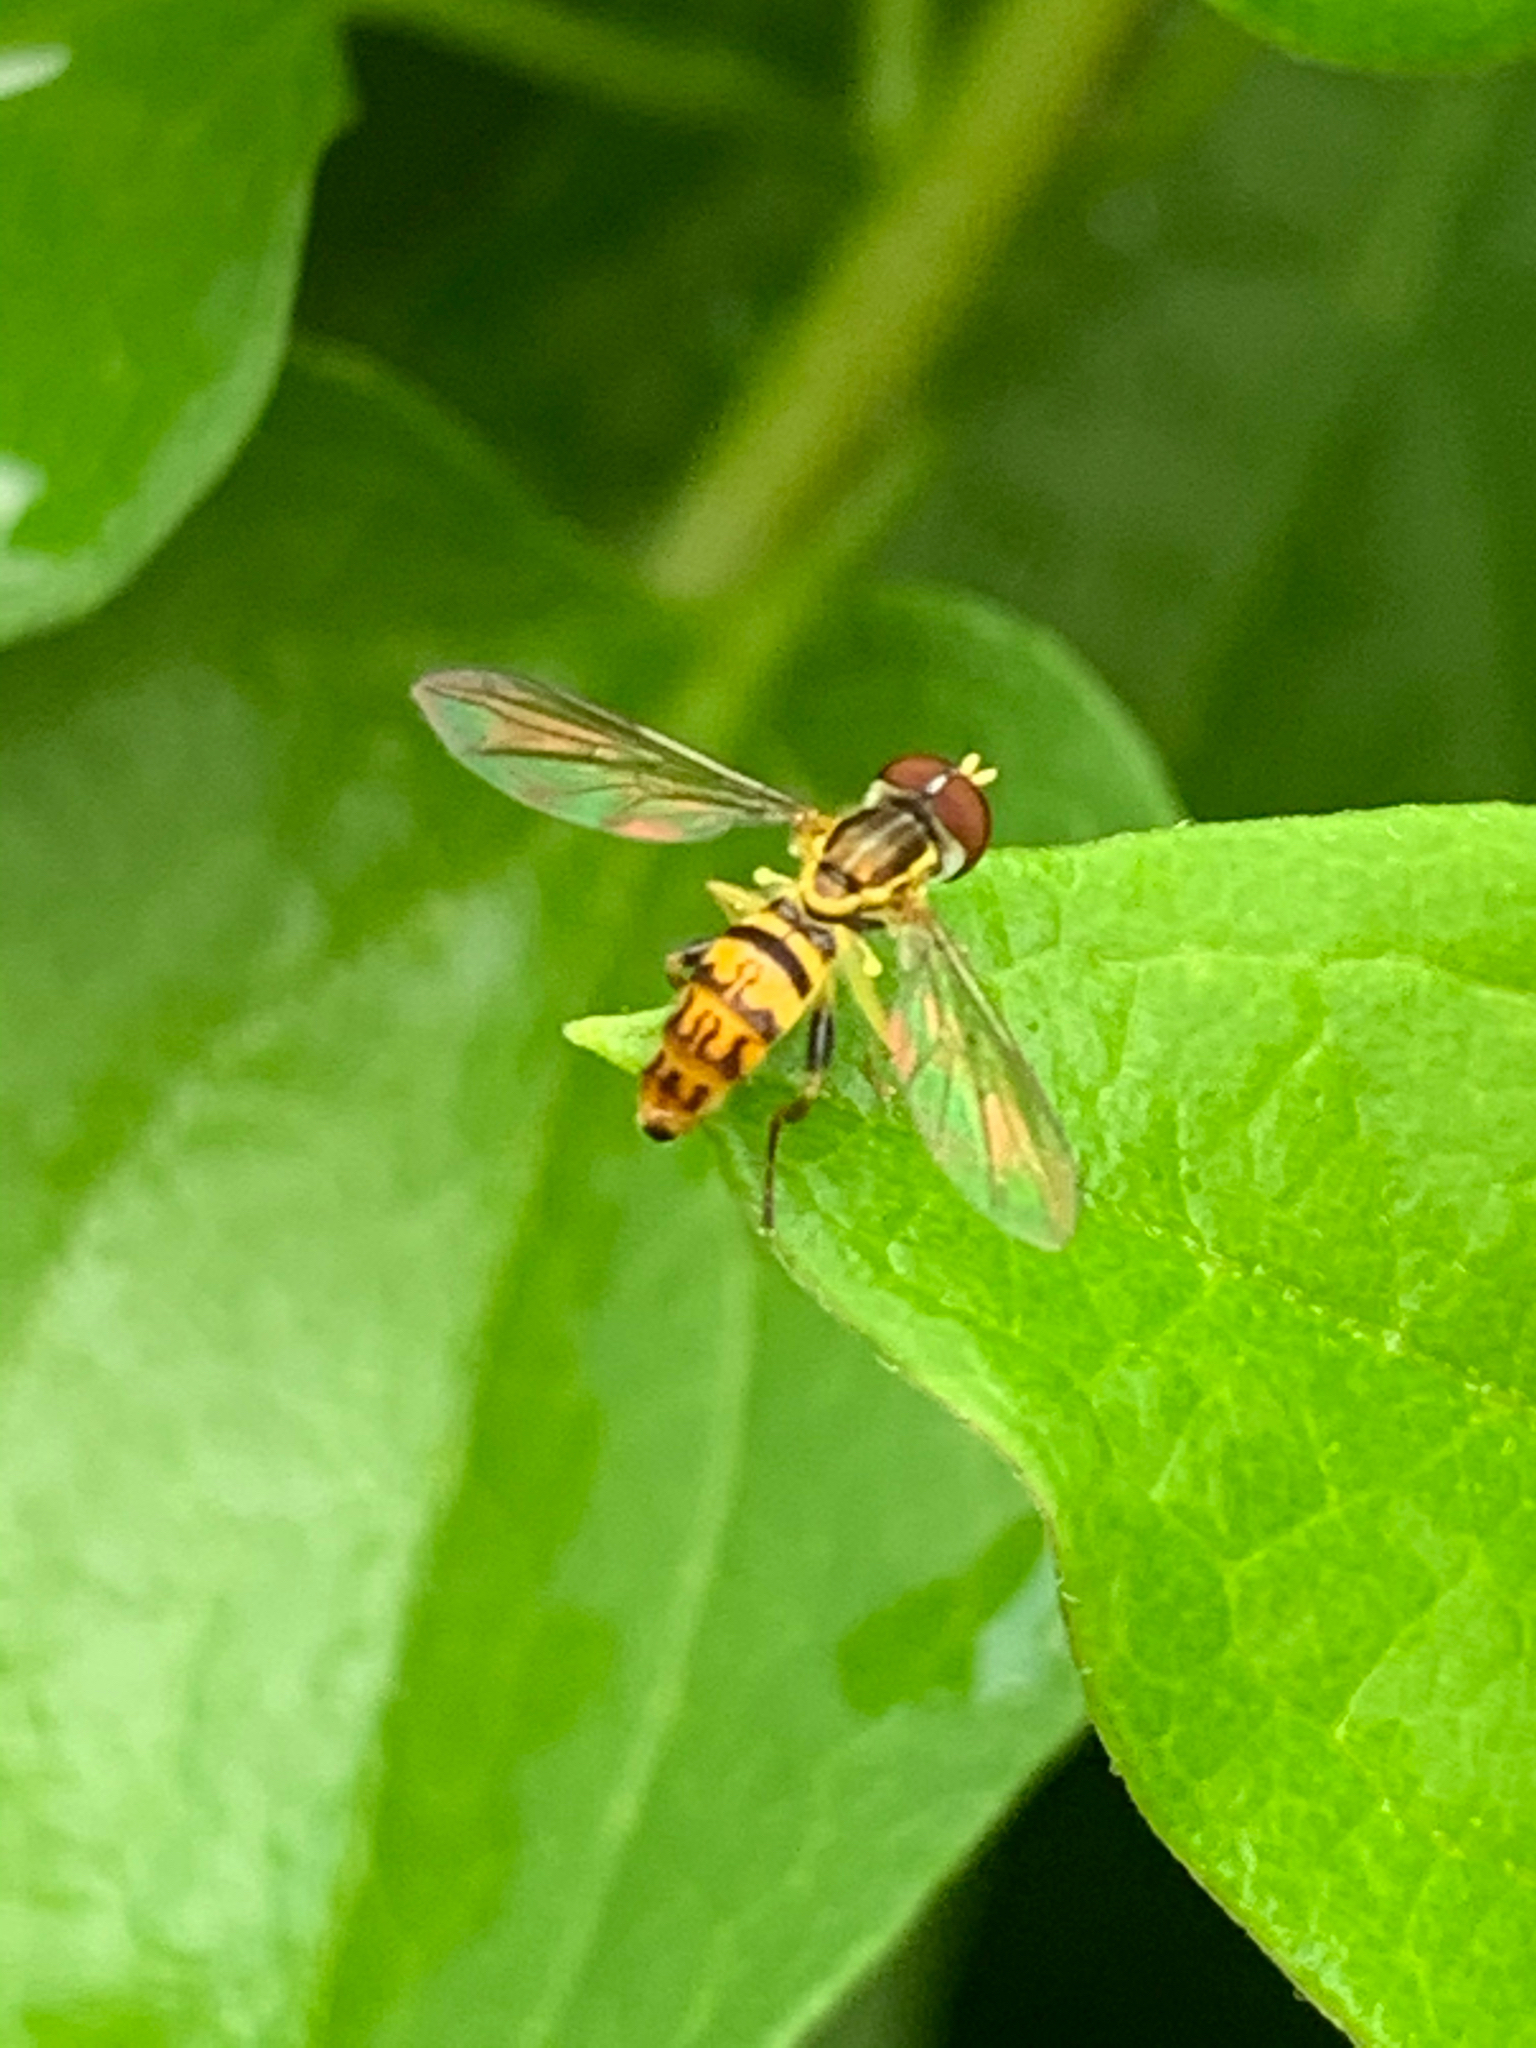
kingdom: Animalia
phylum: Arthropoda
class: Insecta
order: Diptera
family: Syrphidae
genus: Toxomerus
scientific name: Toxomerus geminatus
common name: Eastern calligrapher
